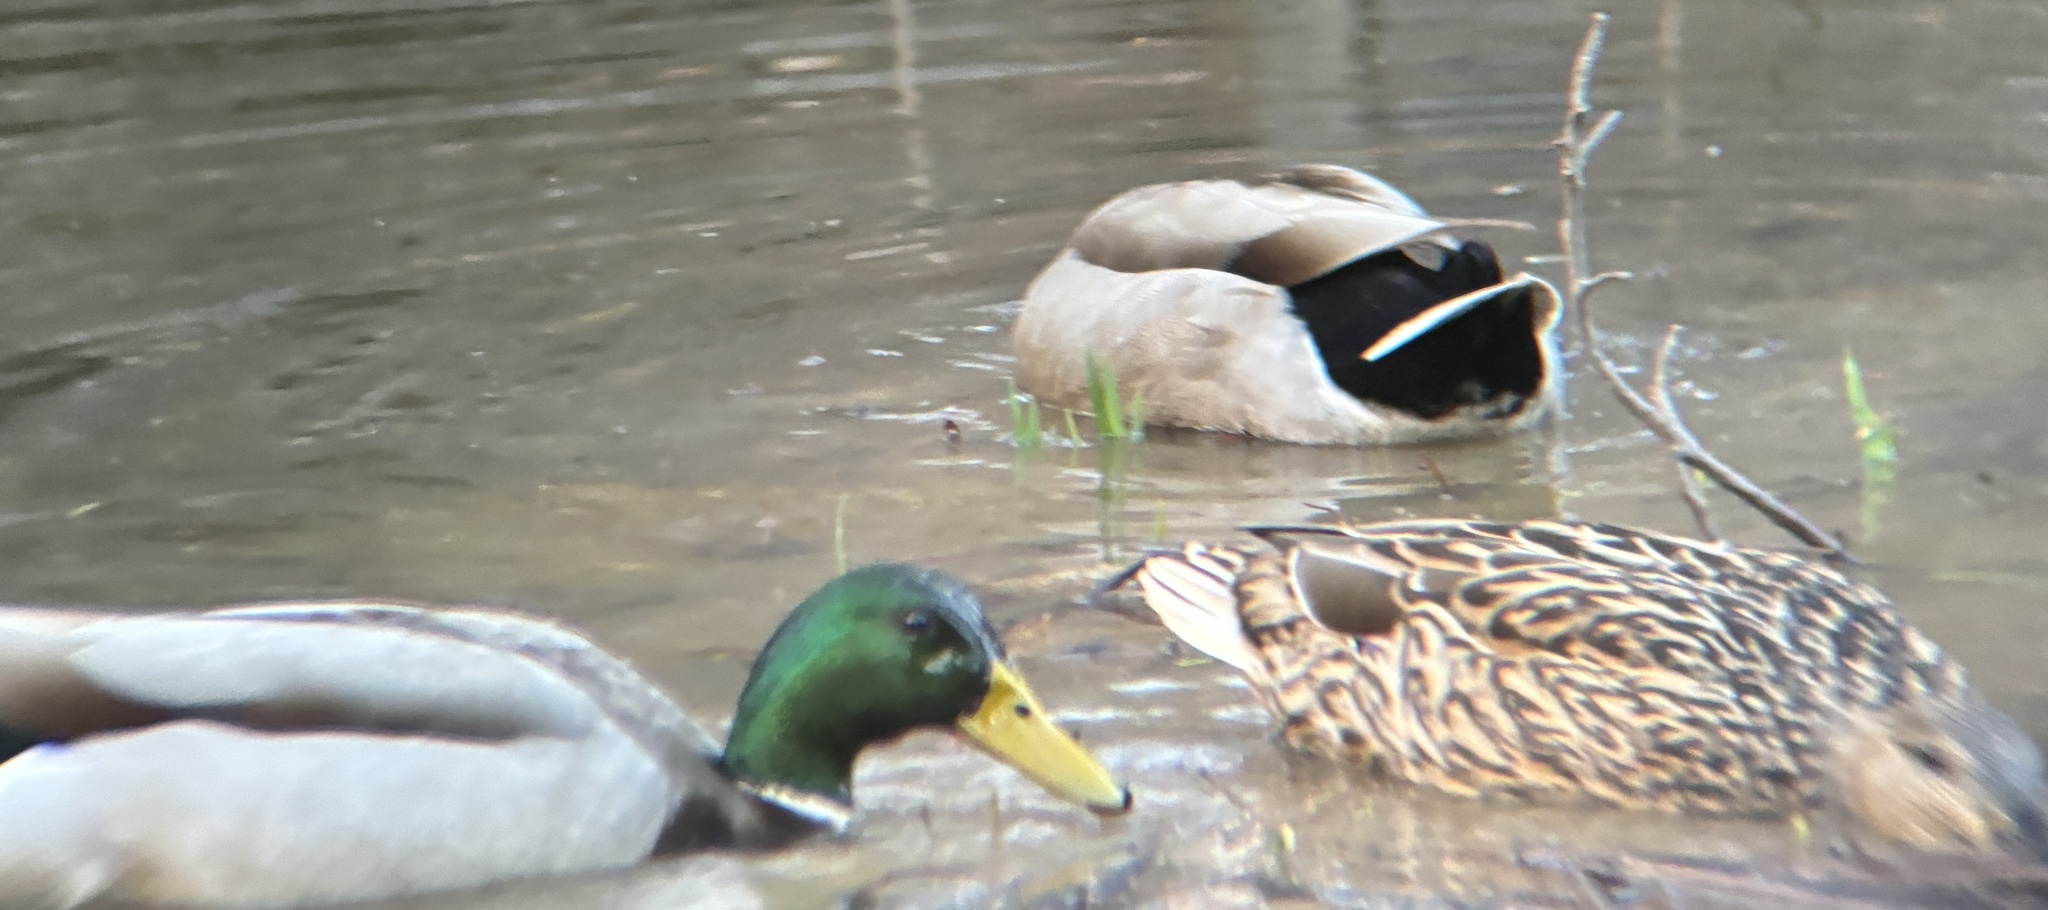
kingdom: Animalia
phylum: Chordata
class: Aves
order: Anseriformes
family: Anatidae
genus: Anas
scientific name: Anas platyrhynchos
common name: Mallard
